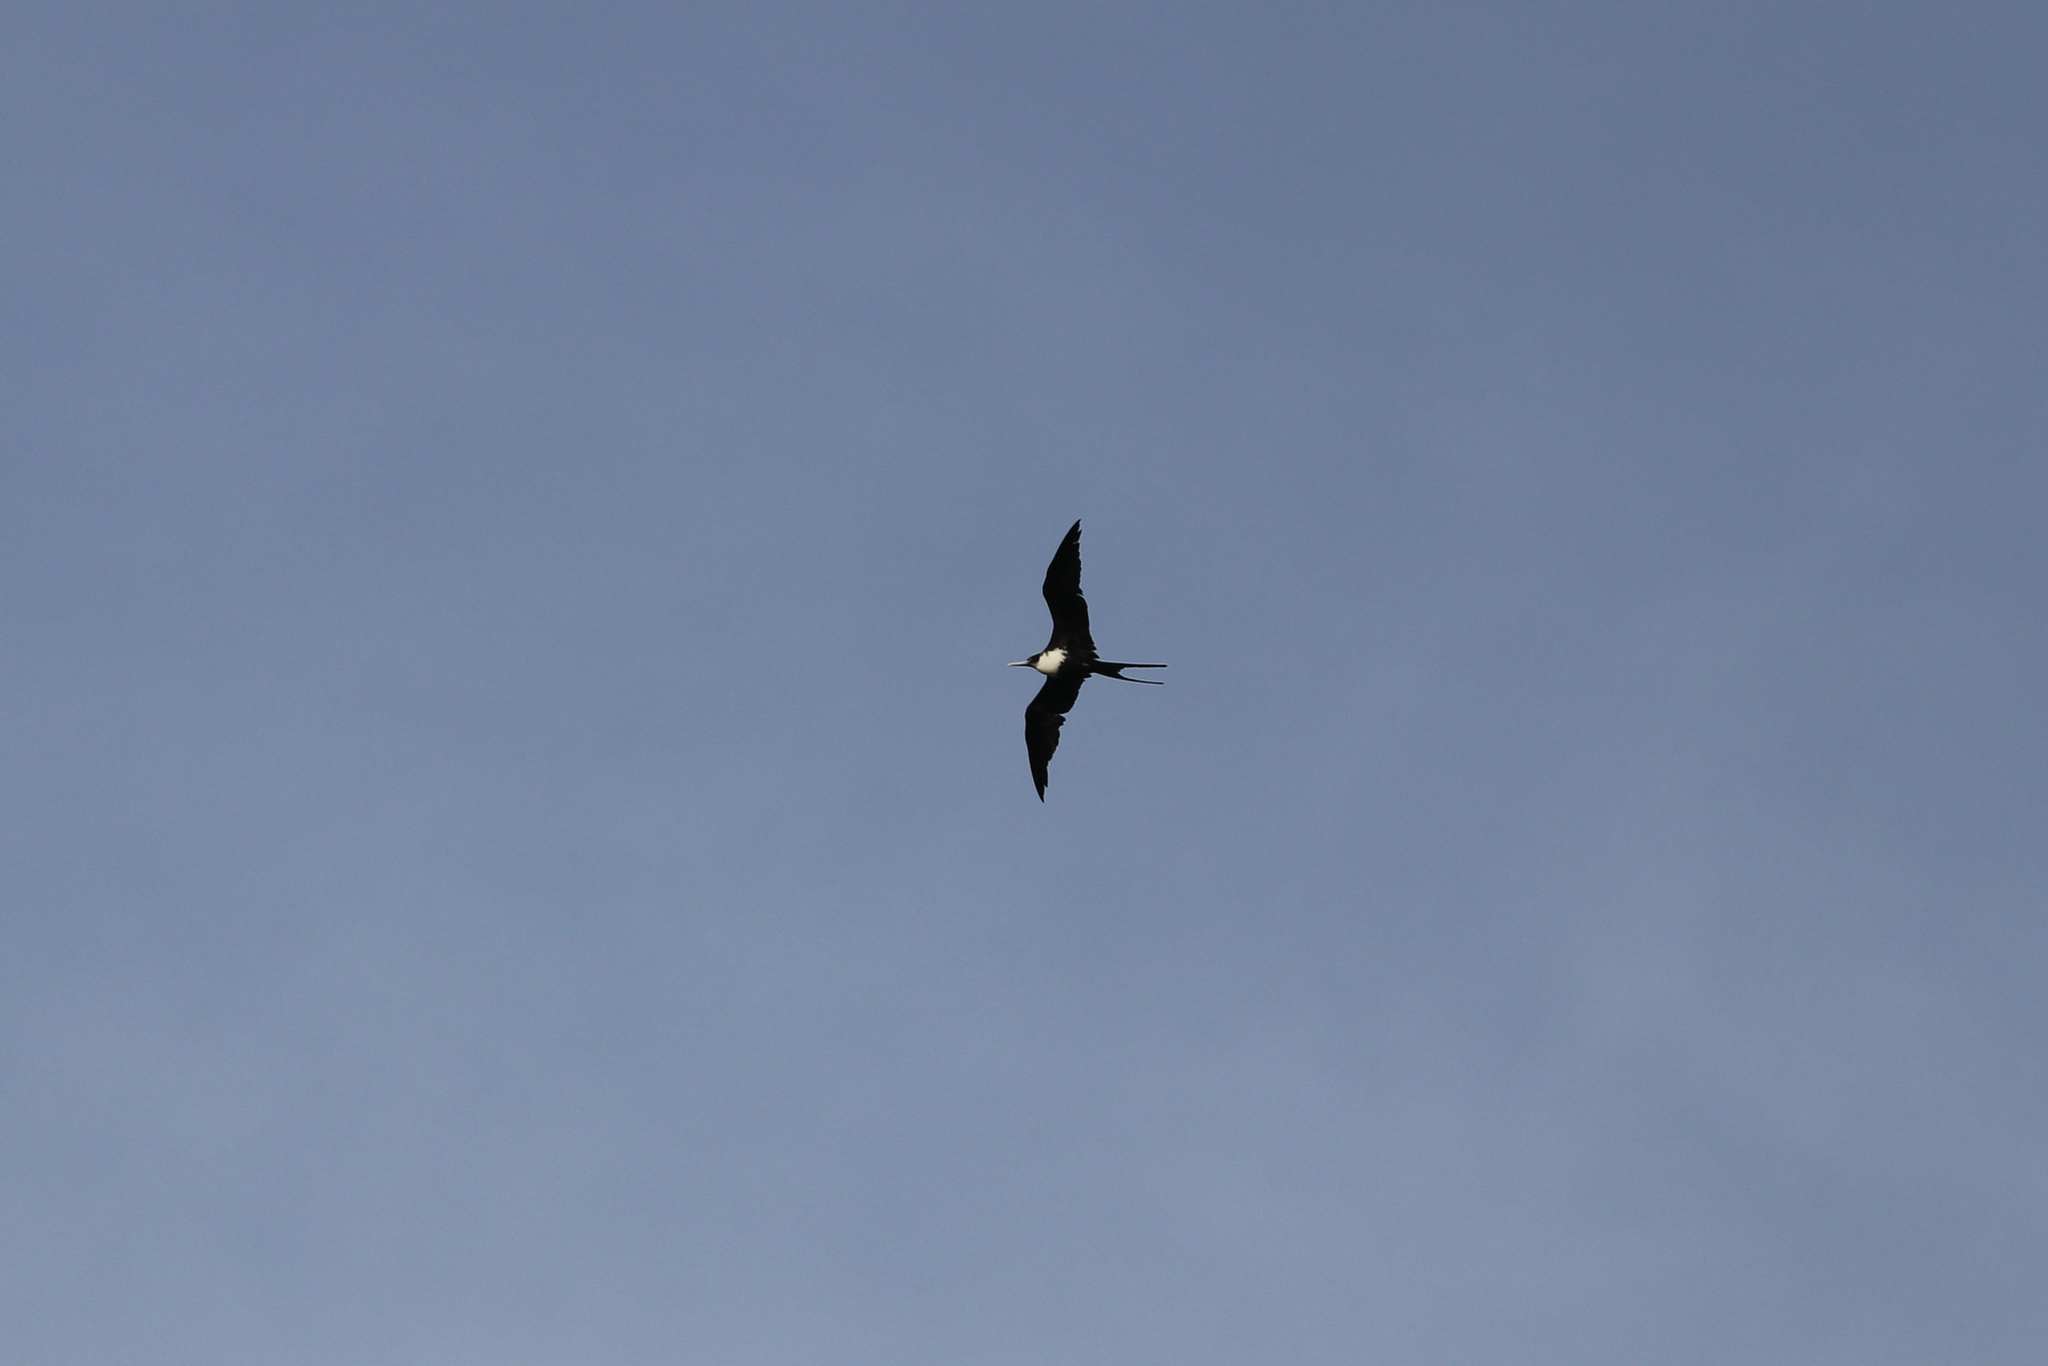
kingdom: Animalia
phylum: Chordata
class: Aves
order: Suliformes
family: Fregatidae
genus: Fregata
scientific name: Fregata minor
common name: Great frigatebird
